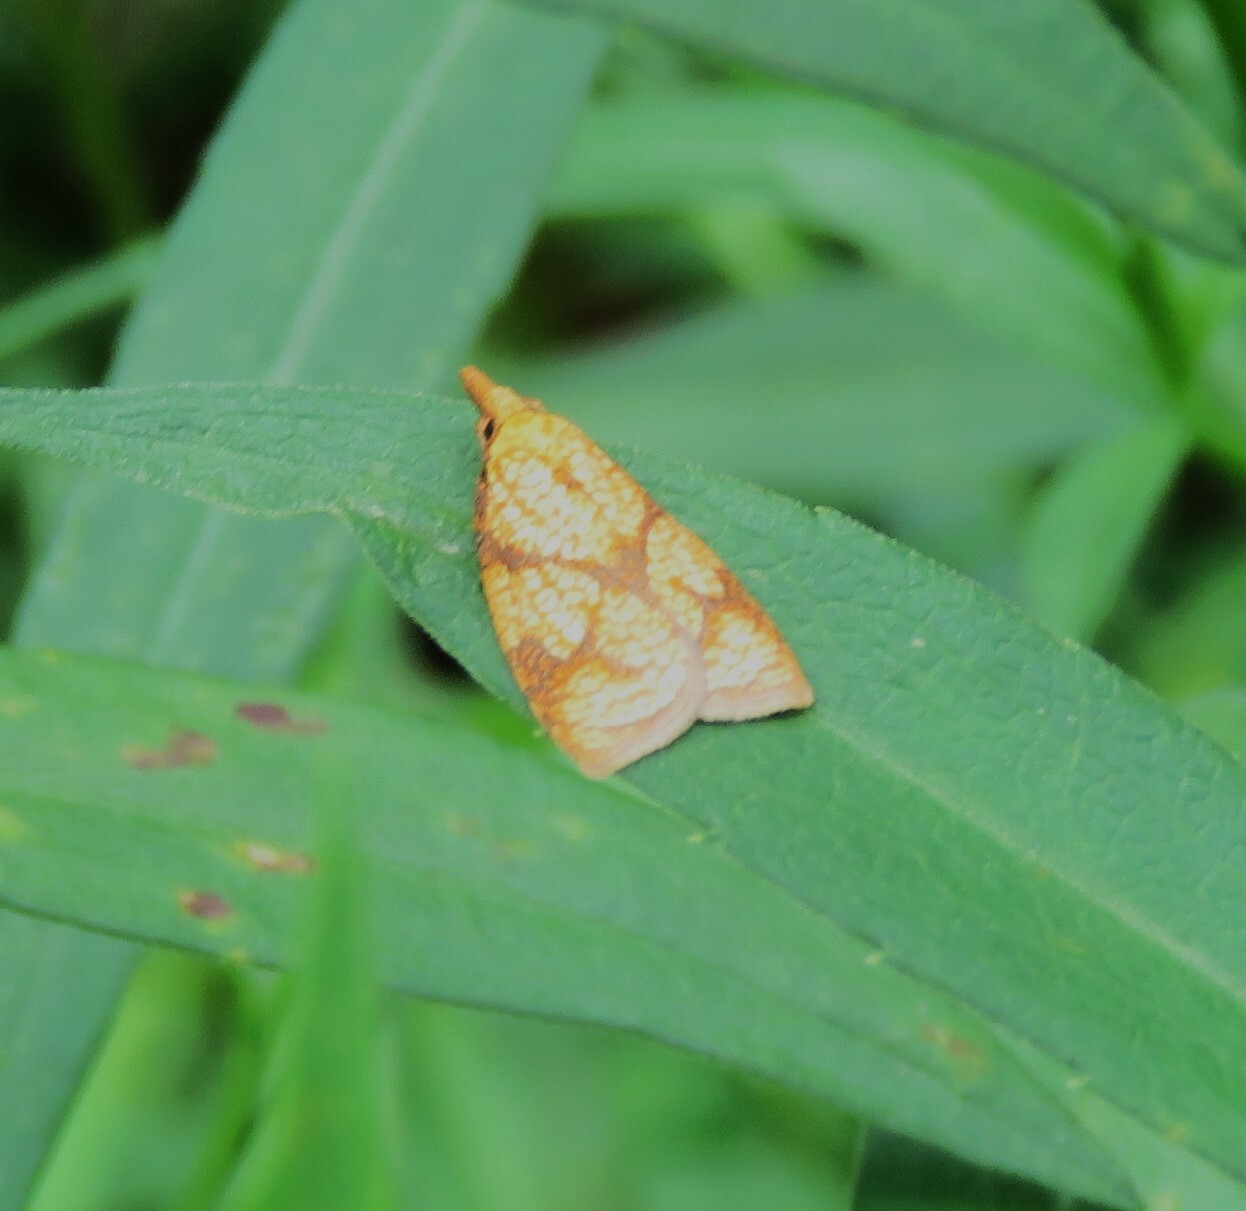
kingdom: Animalia
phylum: Arthropoda
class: Insecta
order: Lepidoptera
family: Tortricidae
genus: Cenopis
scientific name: Cenopis reticulatana
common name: Reticulated fruitworm moth
